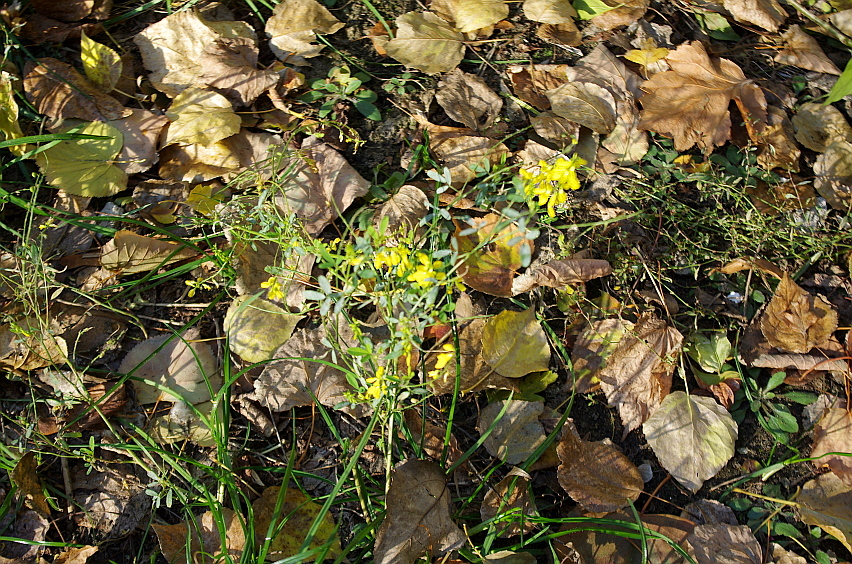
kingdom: Plantae
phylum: Tracheophyta
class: Magnoliopsida
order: Fabales
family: Fabaceae
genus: Melilotus
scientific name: Melilotus officinalis
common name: Sweetclover
